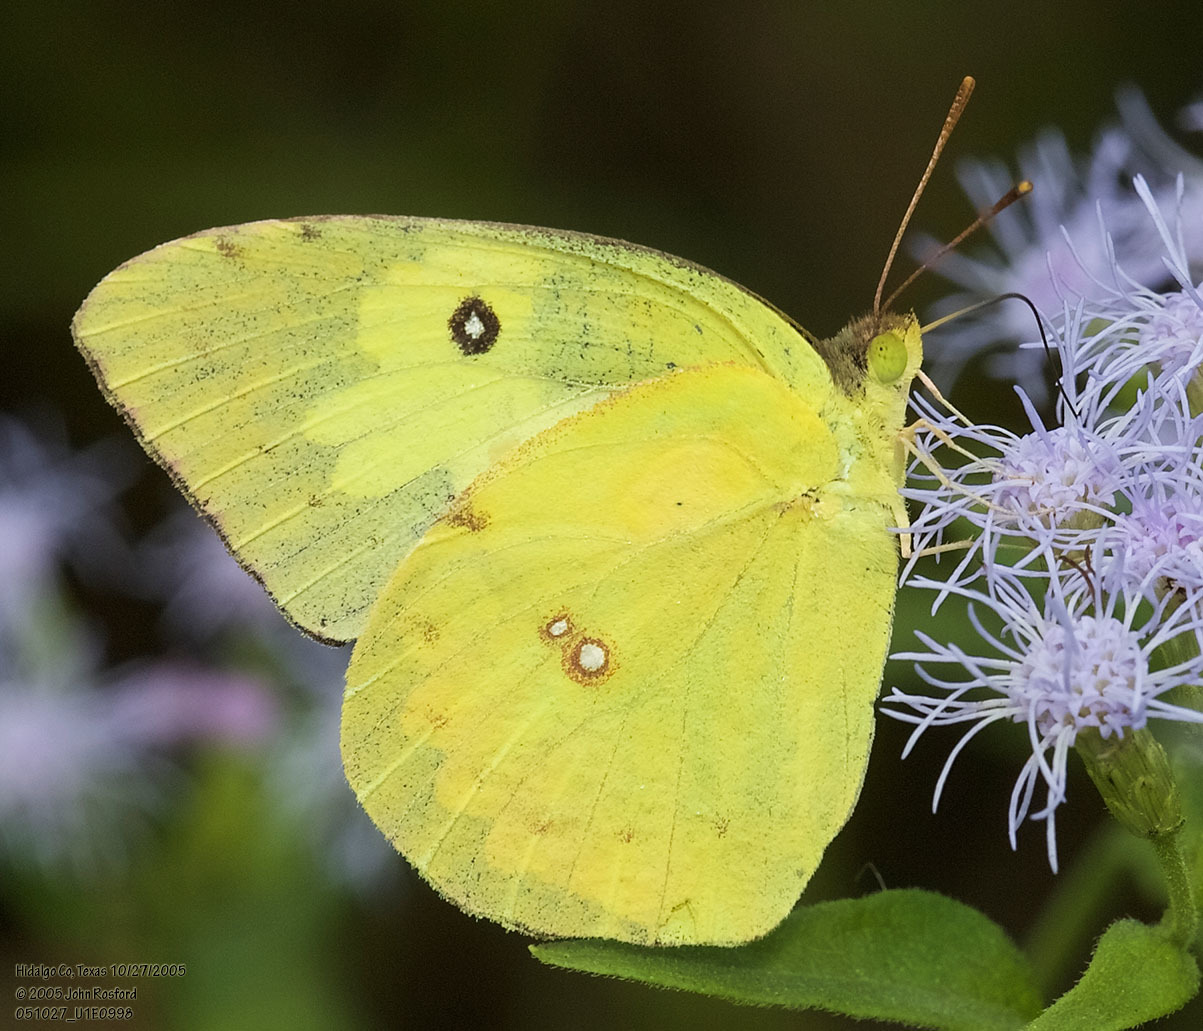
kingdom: Animalia
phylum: Arthropoda
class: Insecta
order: Lepidoptera
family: Pieridae
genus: Zerene
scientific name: Zerene cesonia
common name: Southern dogface
